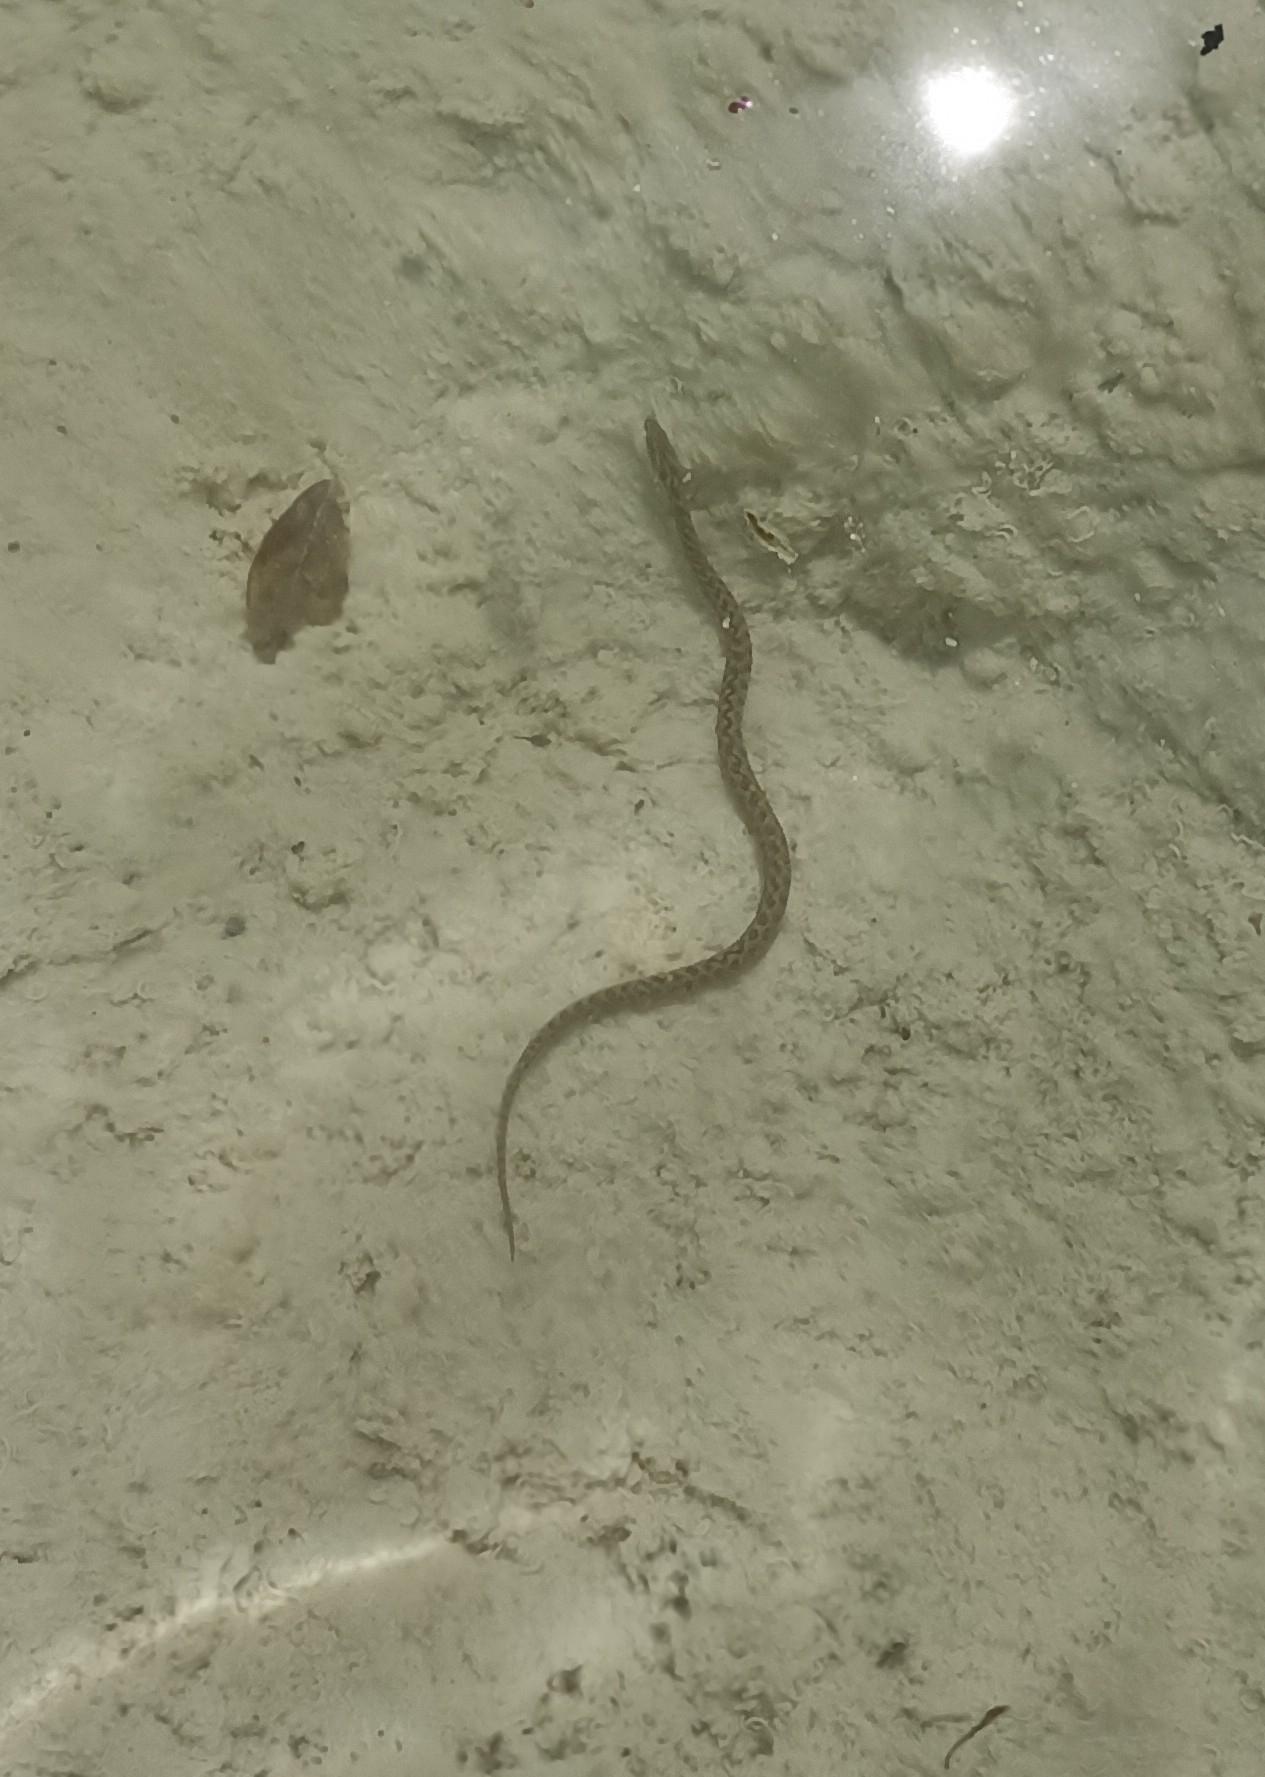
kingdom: Animalia
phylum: Chordata
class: Squamata
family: Colubridae
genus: Natrix
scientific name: Natrix maura
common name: Viperine water snake
